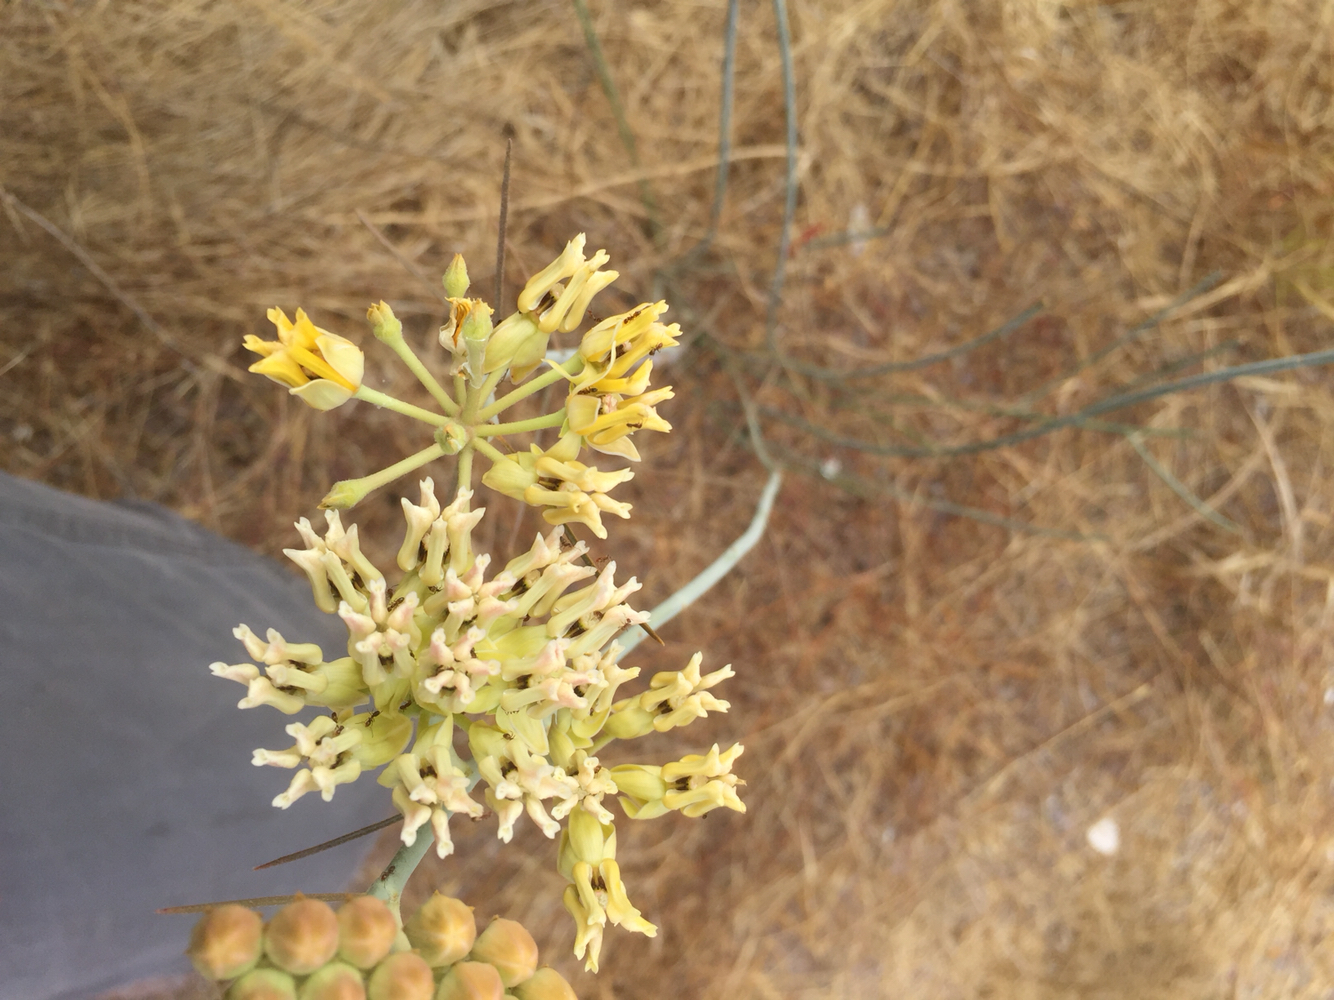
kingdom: Plantae
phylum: Tracheophyta
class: Magnoliopsida
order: Gentianales
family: Apocynaceae
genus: Asclepias
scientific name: Asclepias subulata
